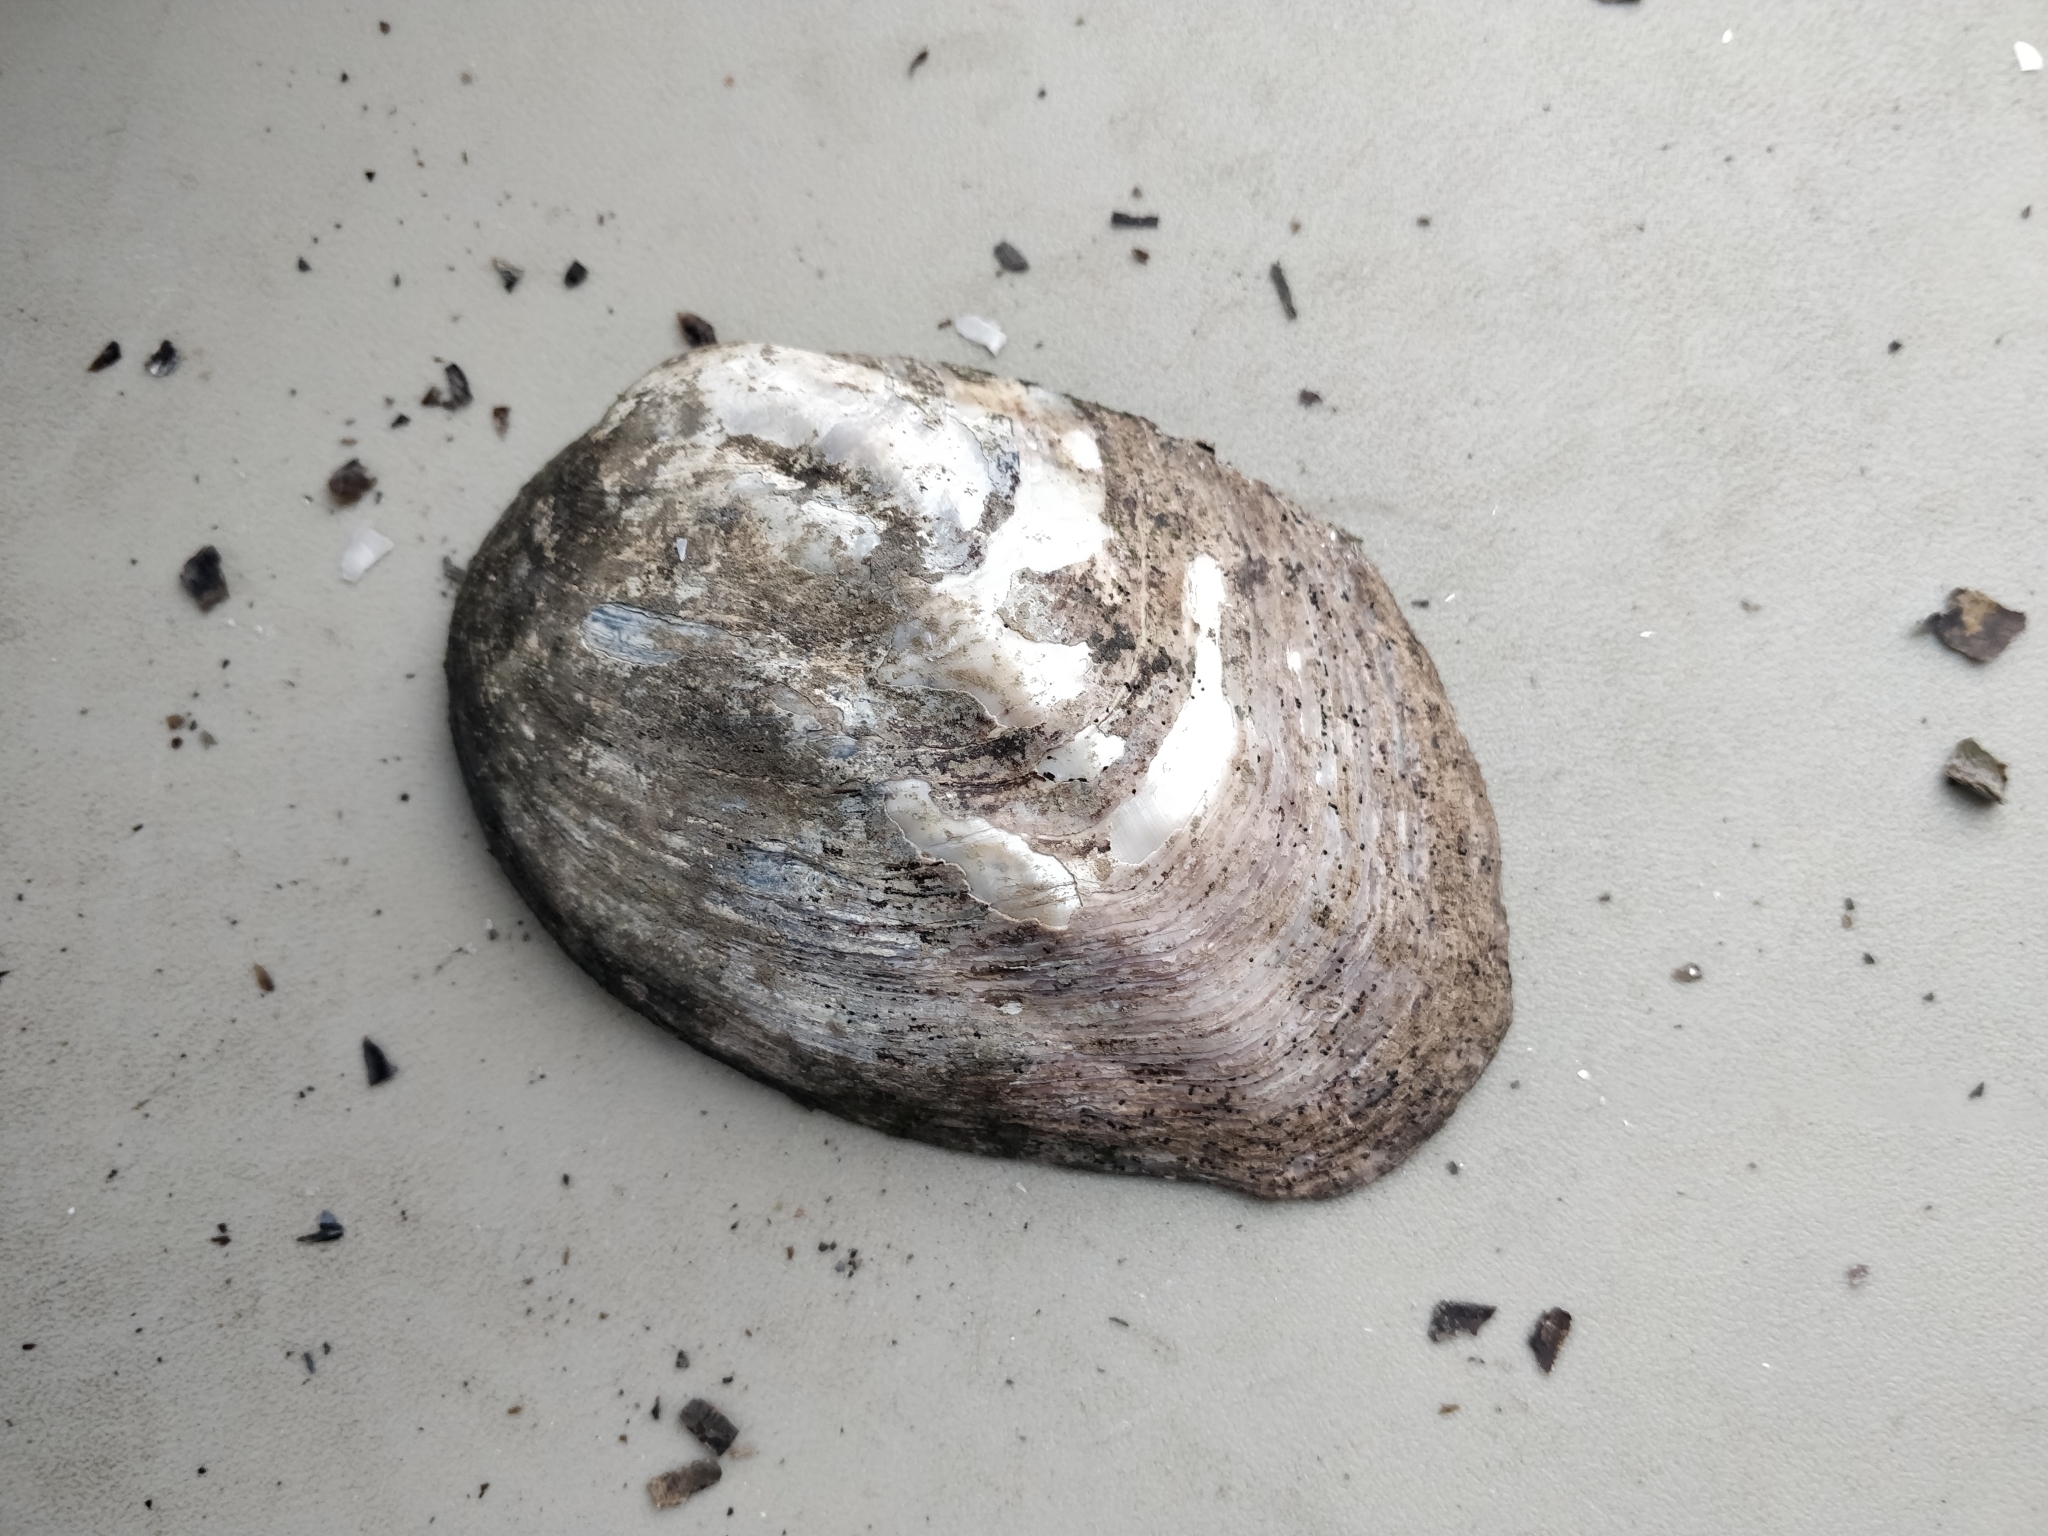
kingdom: Animalia
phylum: Mollusca
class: Bivalvia
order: Unionida
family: Unionidae
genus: Amblema
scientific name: Amblema plicata
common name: Threeridge
